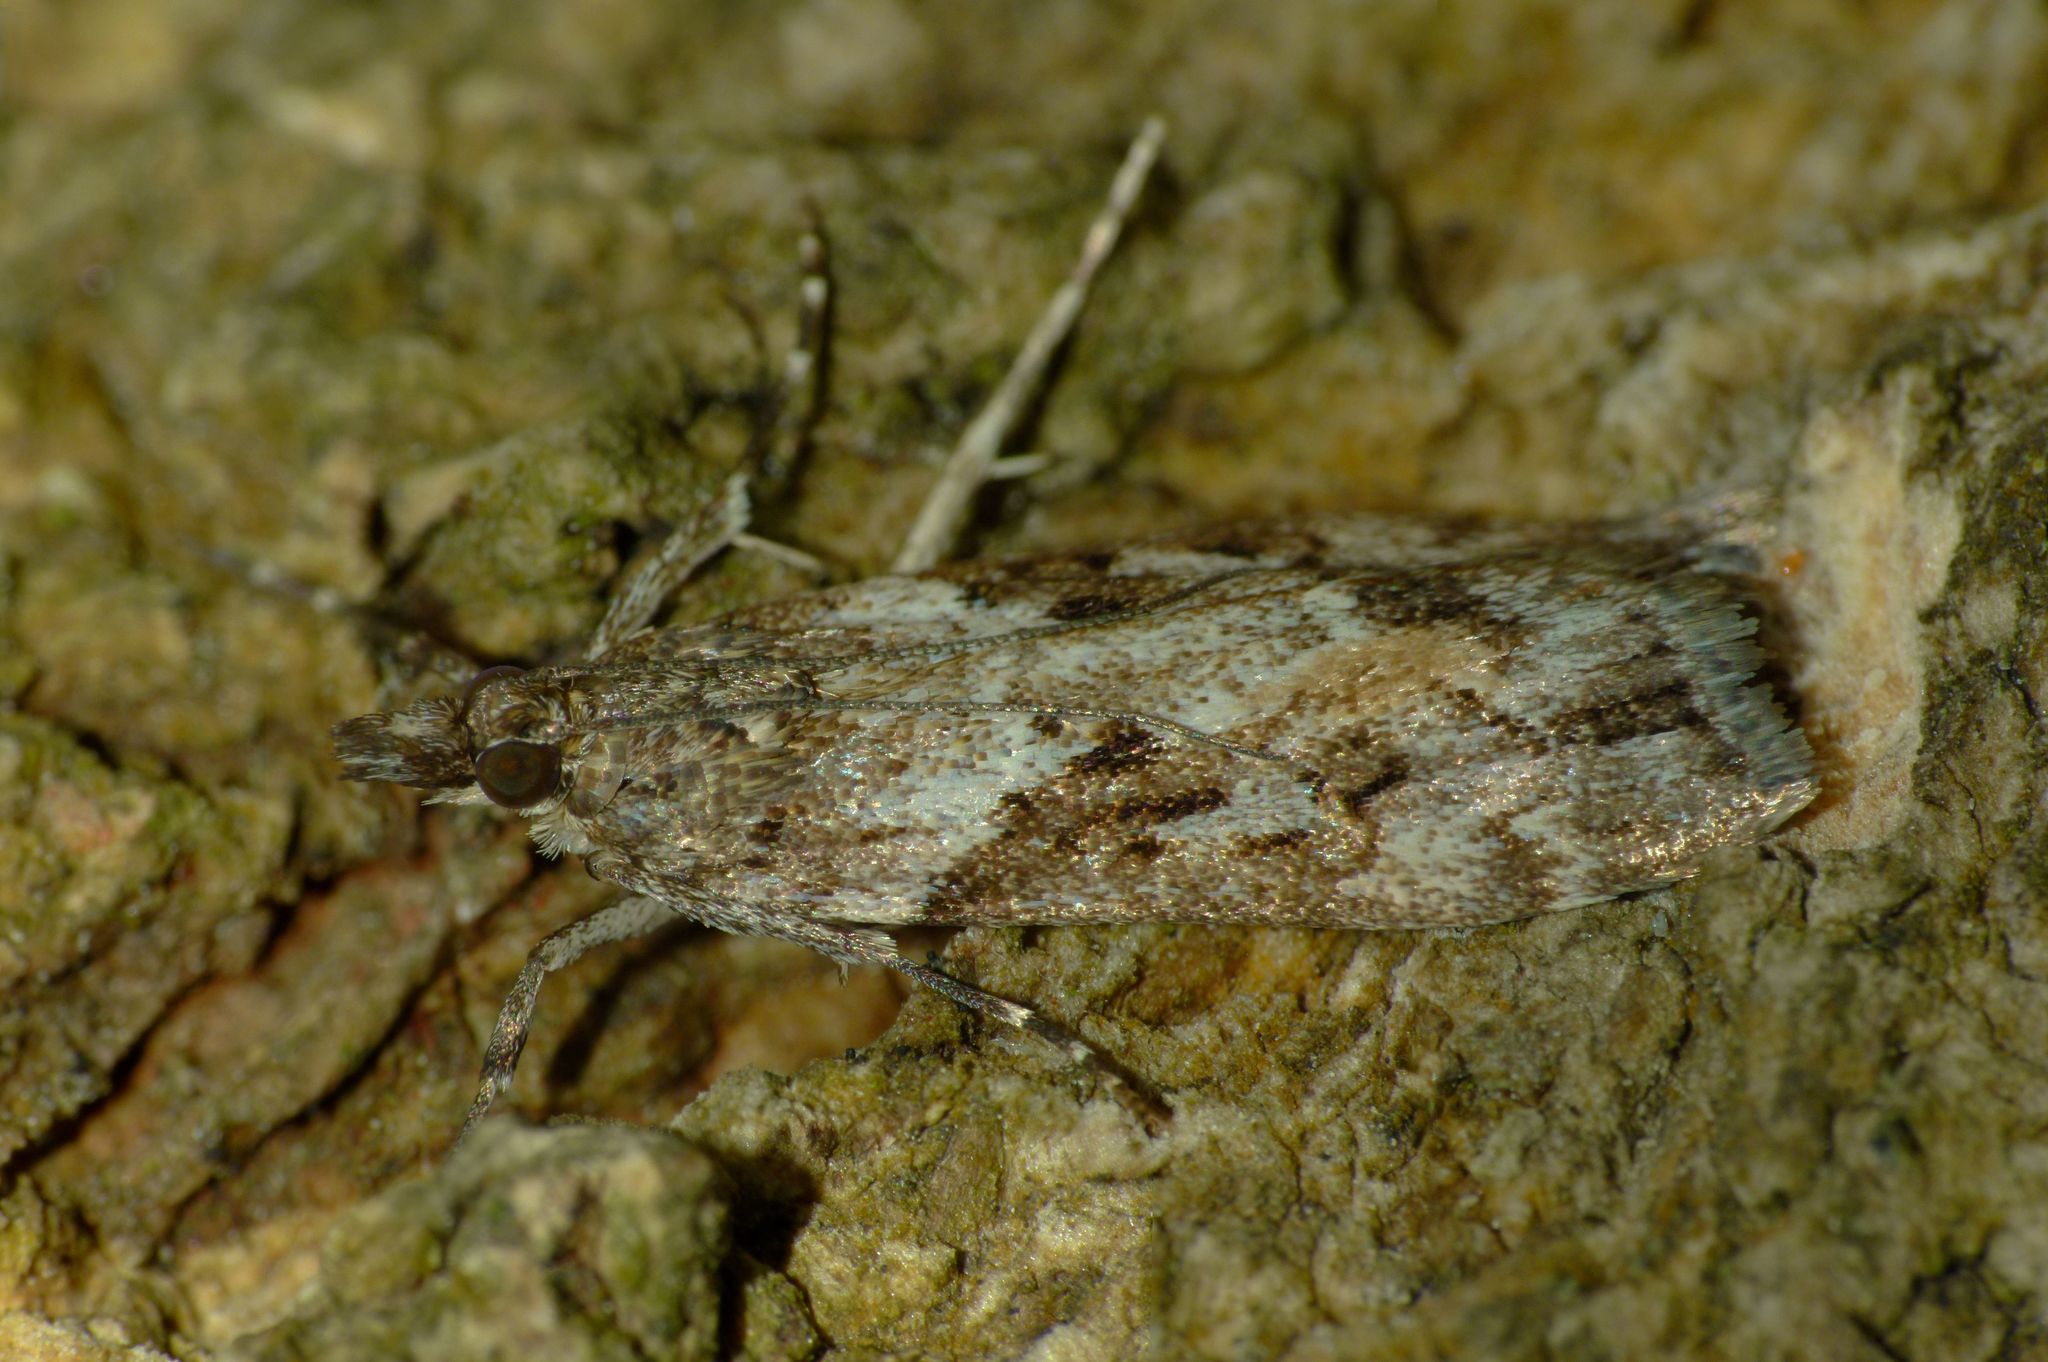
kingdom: Animalia
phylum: Arthropoda
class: Insecta
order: Lepidoptera
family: Crambidae
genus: Eudonia
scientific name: Eudonia submarginalis
